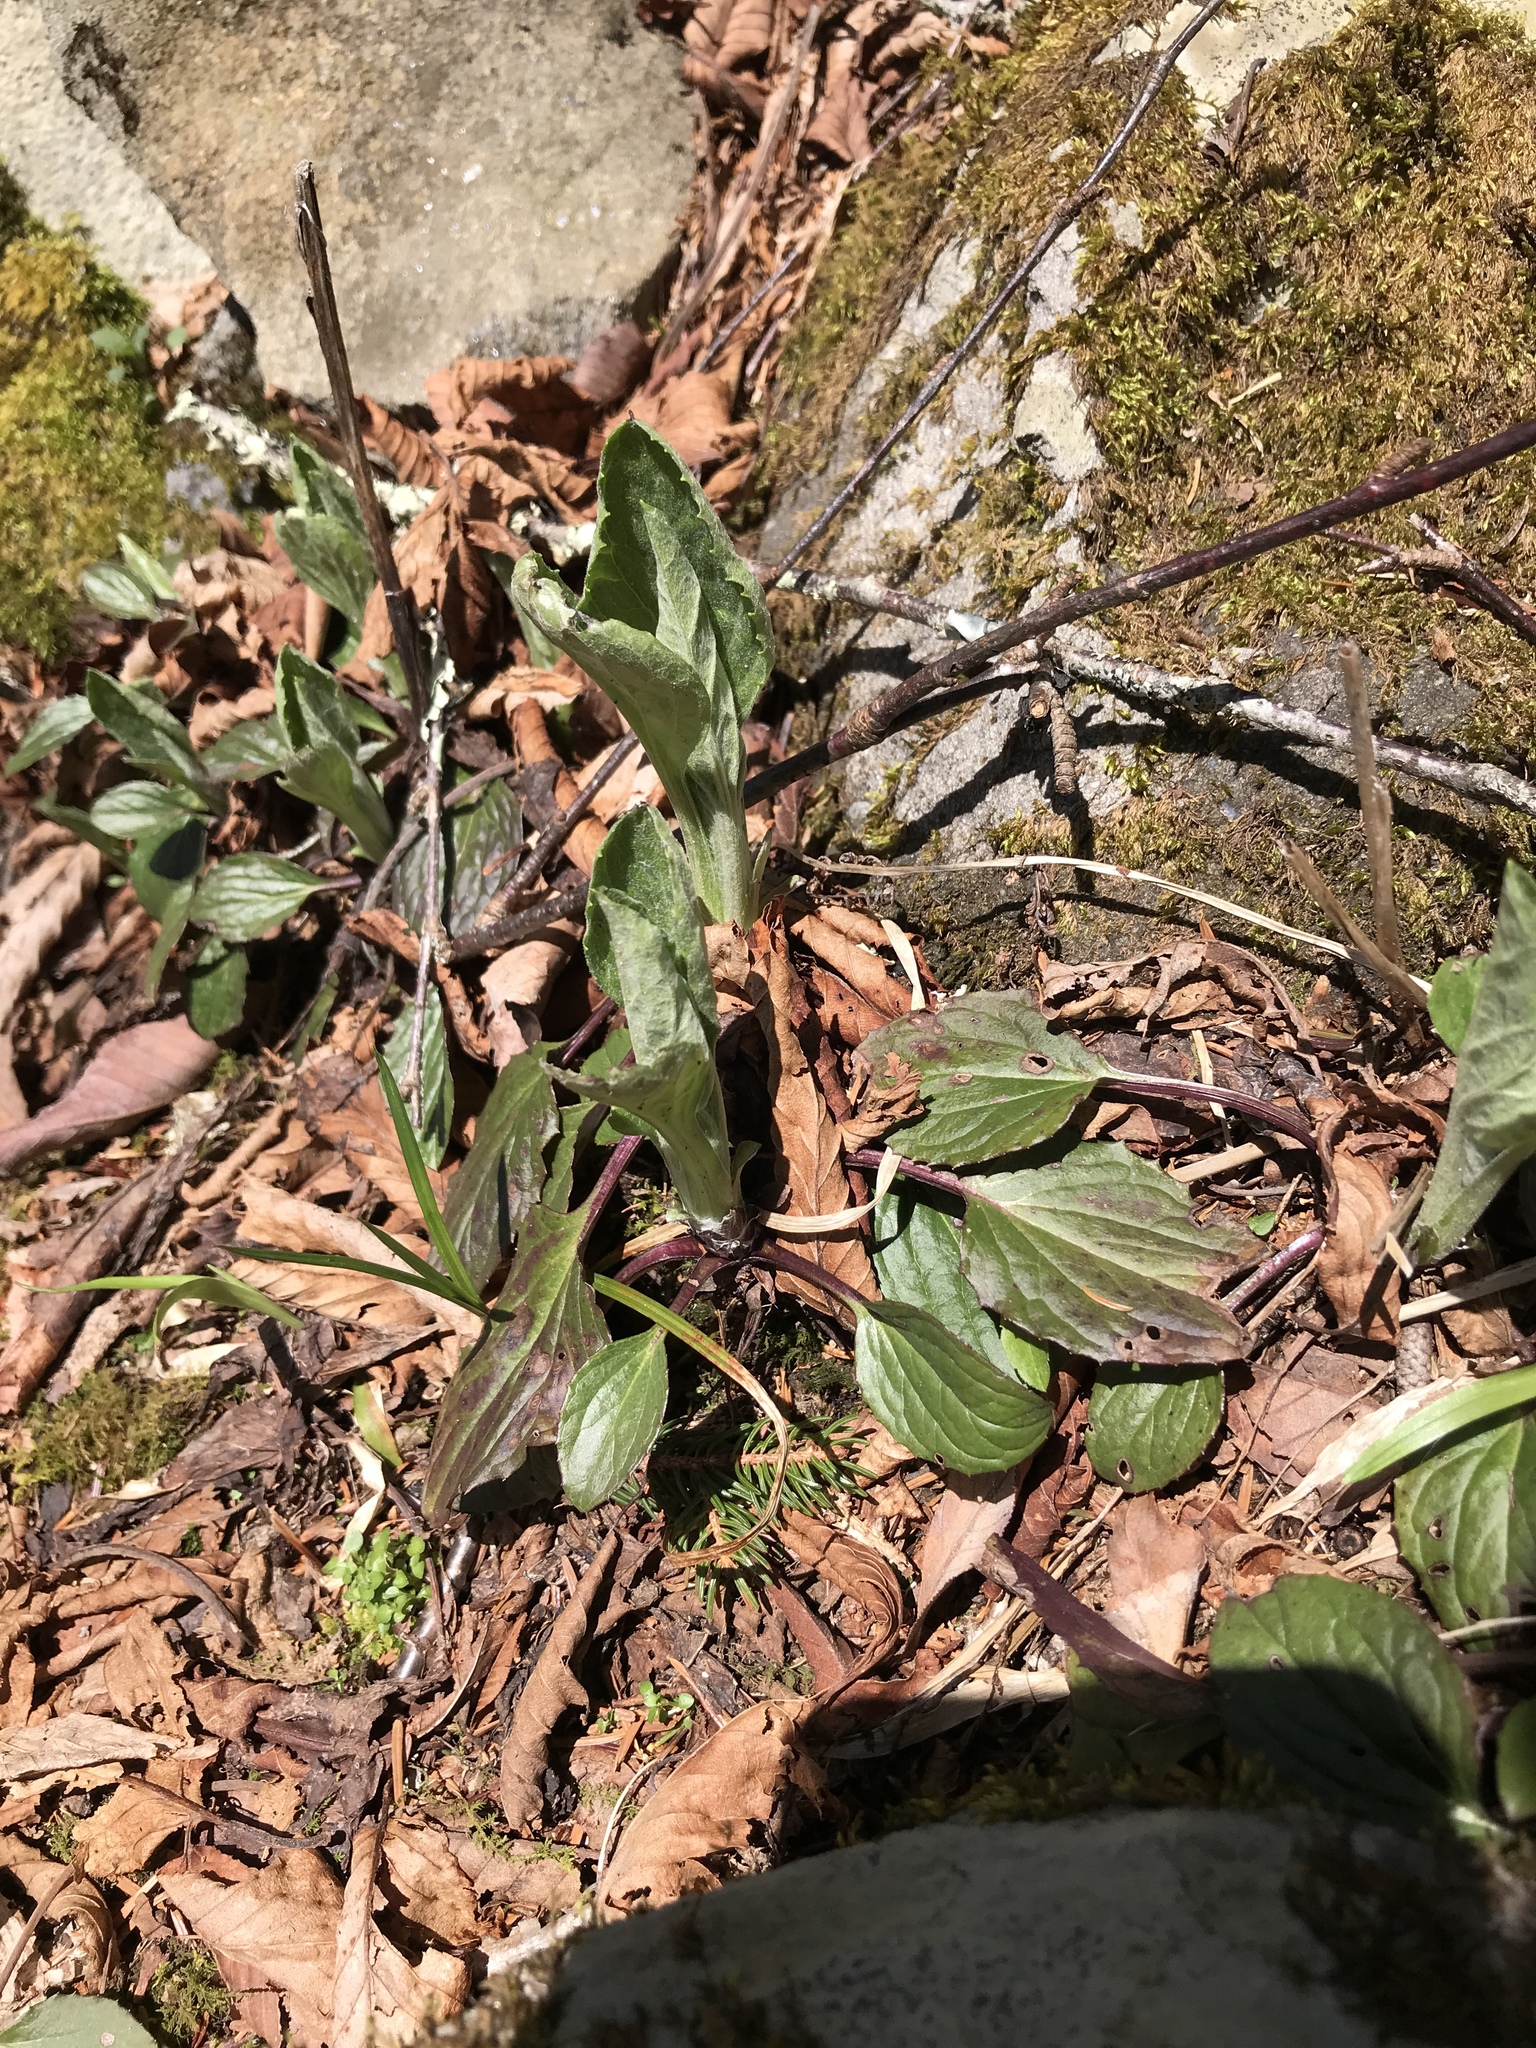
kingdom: Plantae
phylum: Tracheophyta
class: Magnoliopsida
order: Asterales
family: Asteraceae
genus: Rugelia
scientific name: Rugelia nudicaulis
